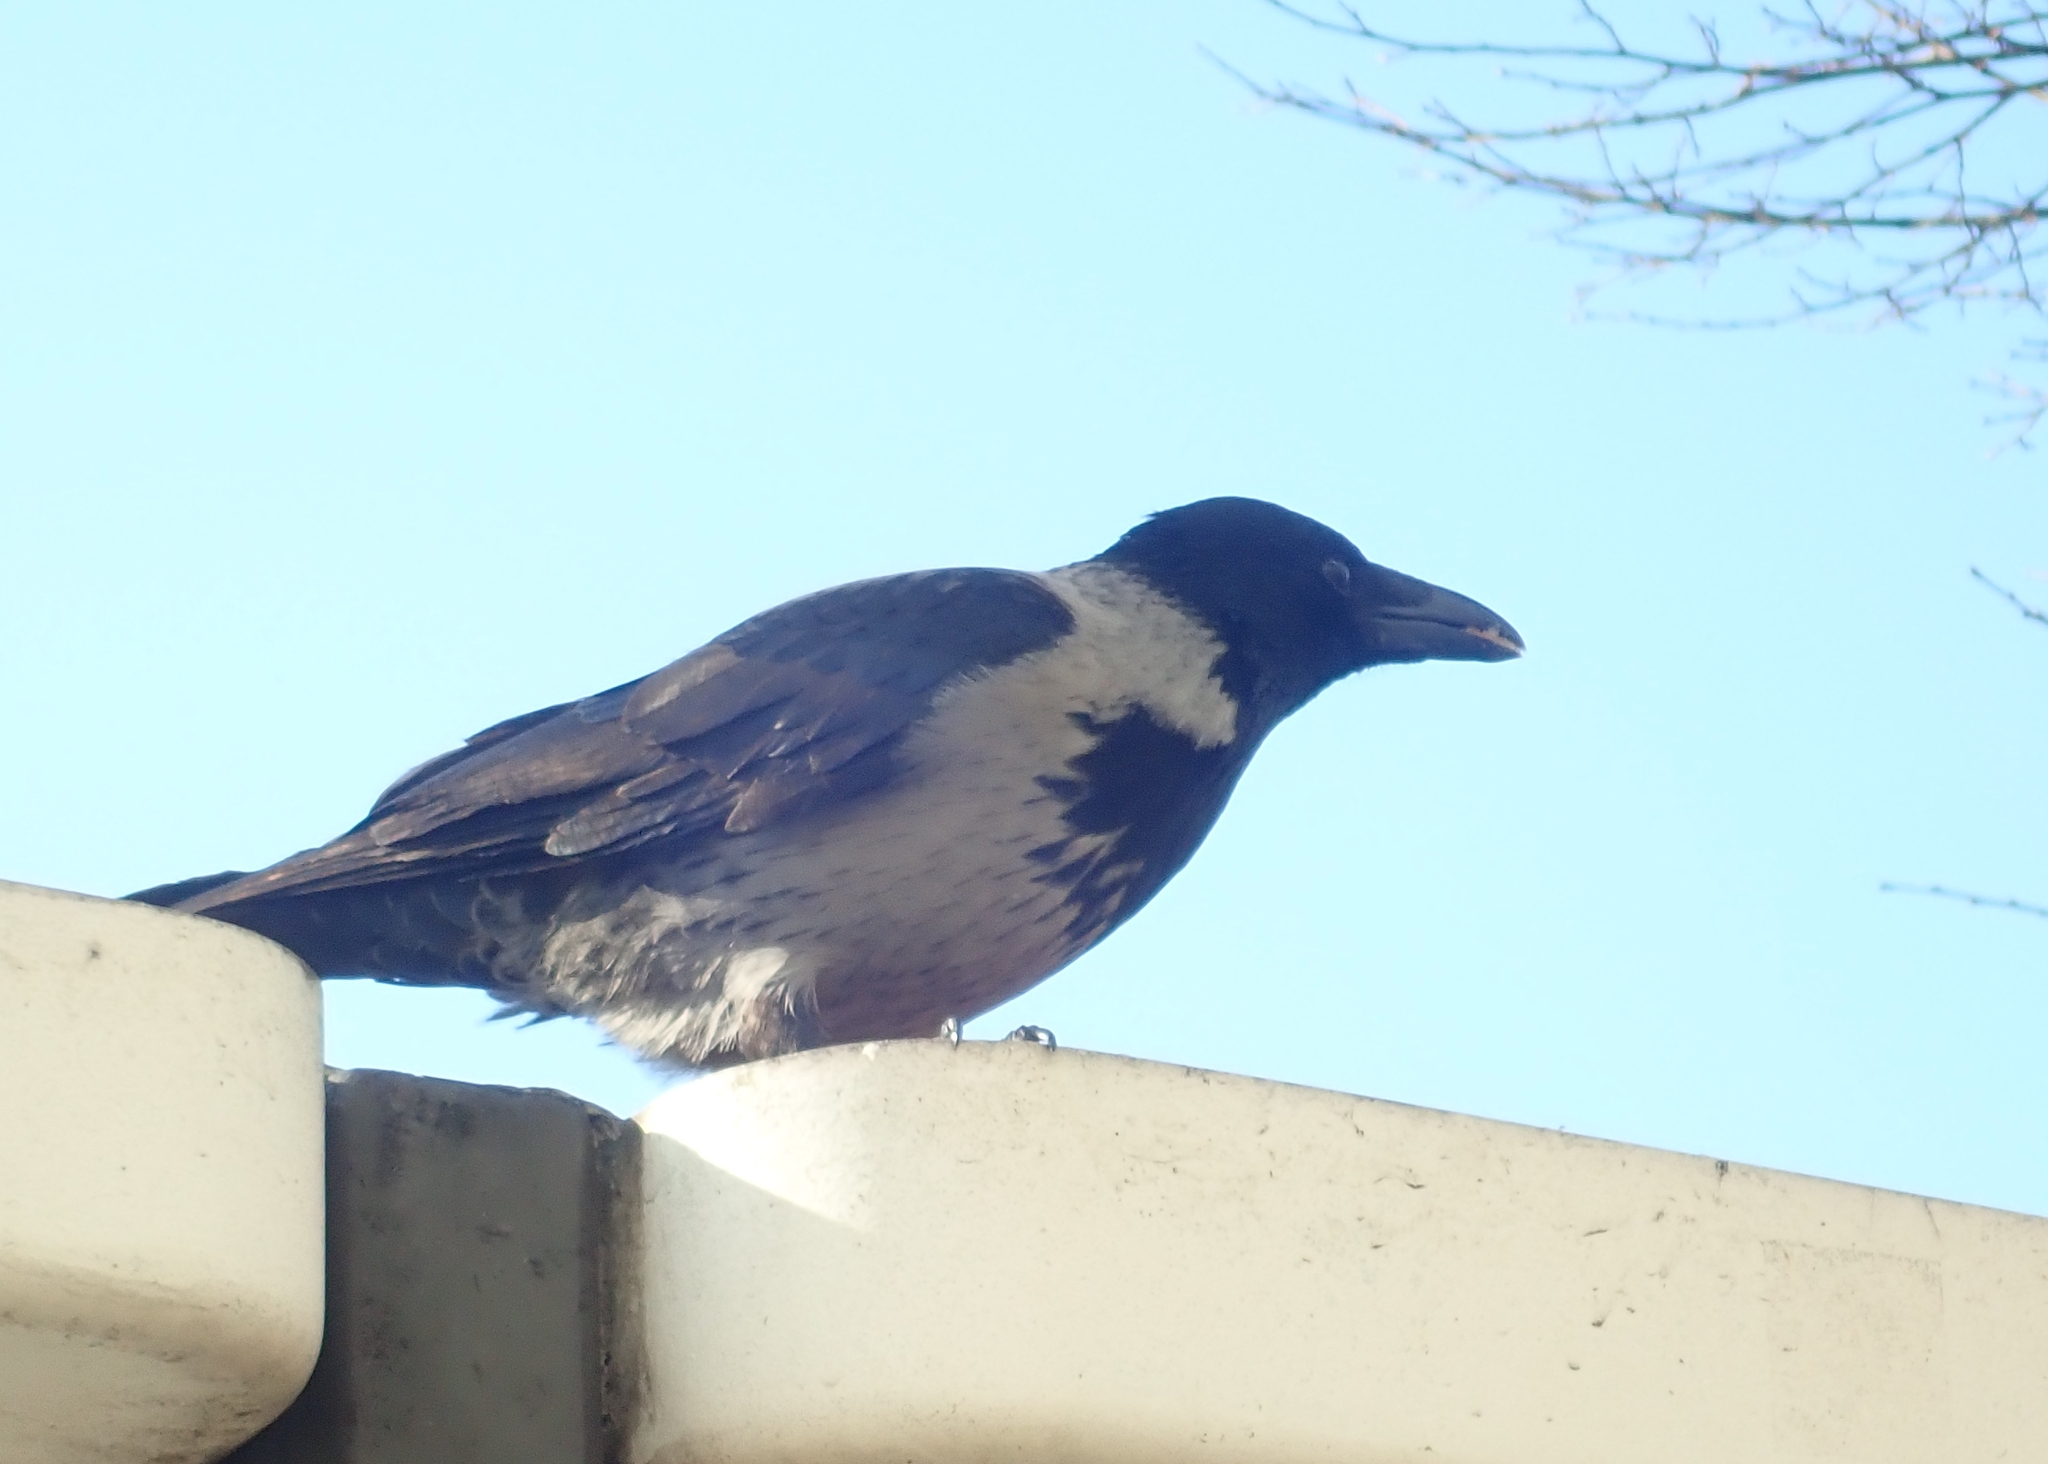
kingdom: Animalia
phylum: Chordata
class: Aves
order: Passeriformes
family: Corvidae
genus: Corvus
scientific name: Corvus
